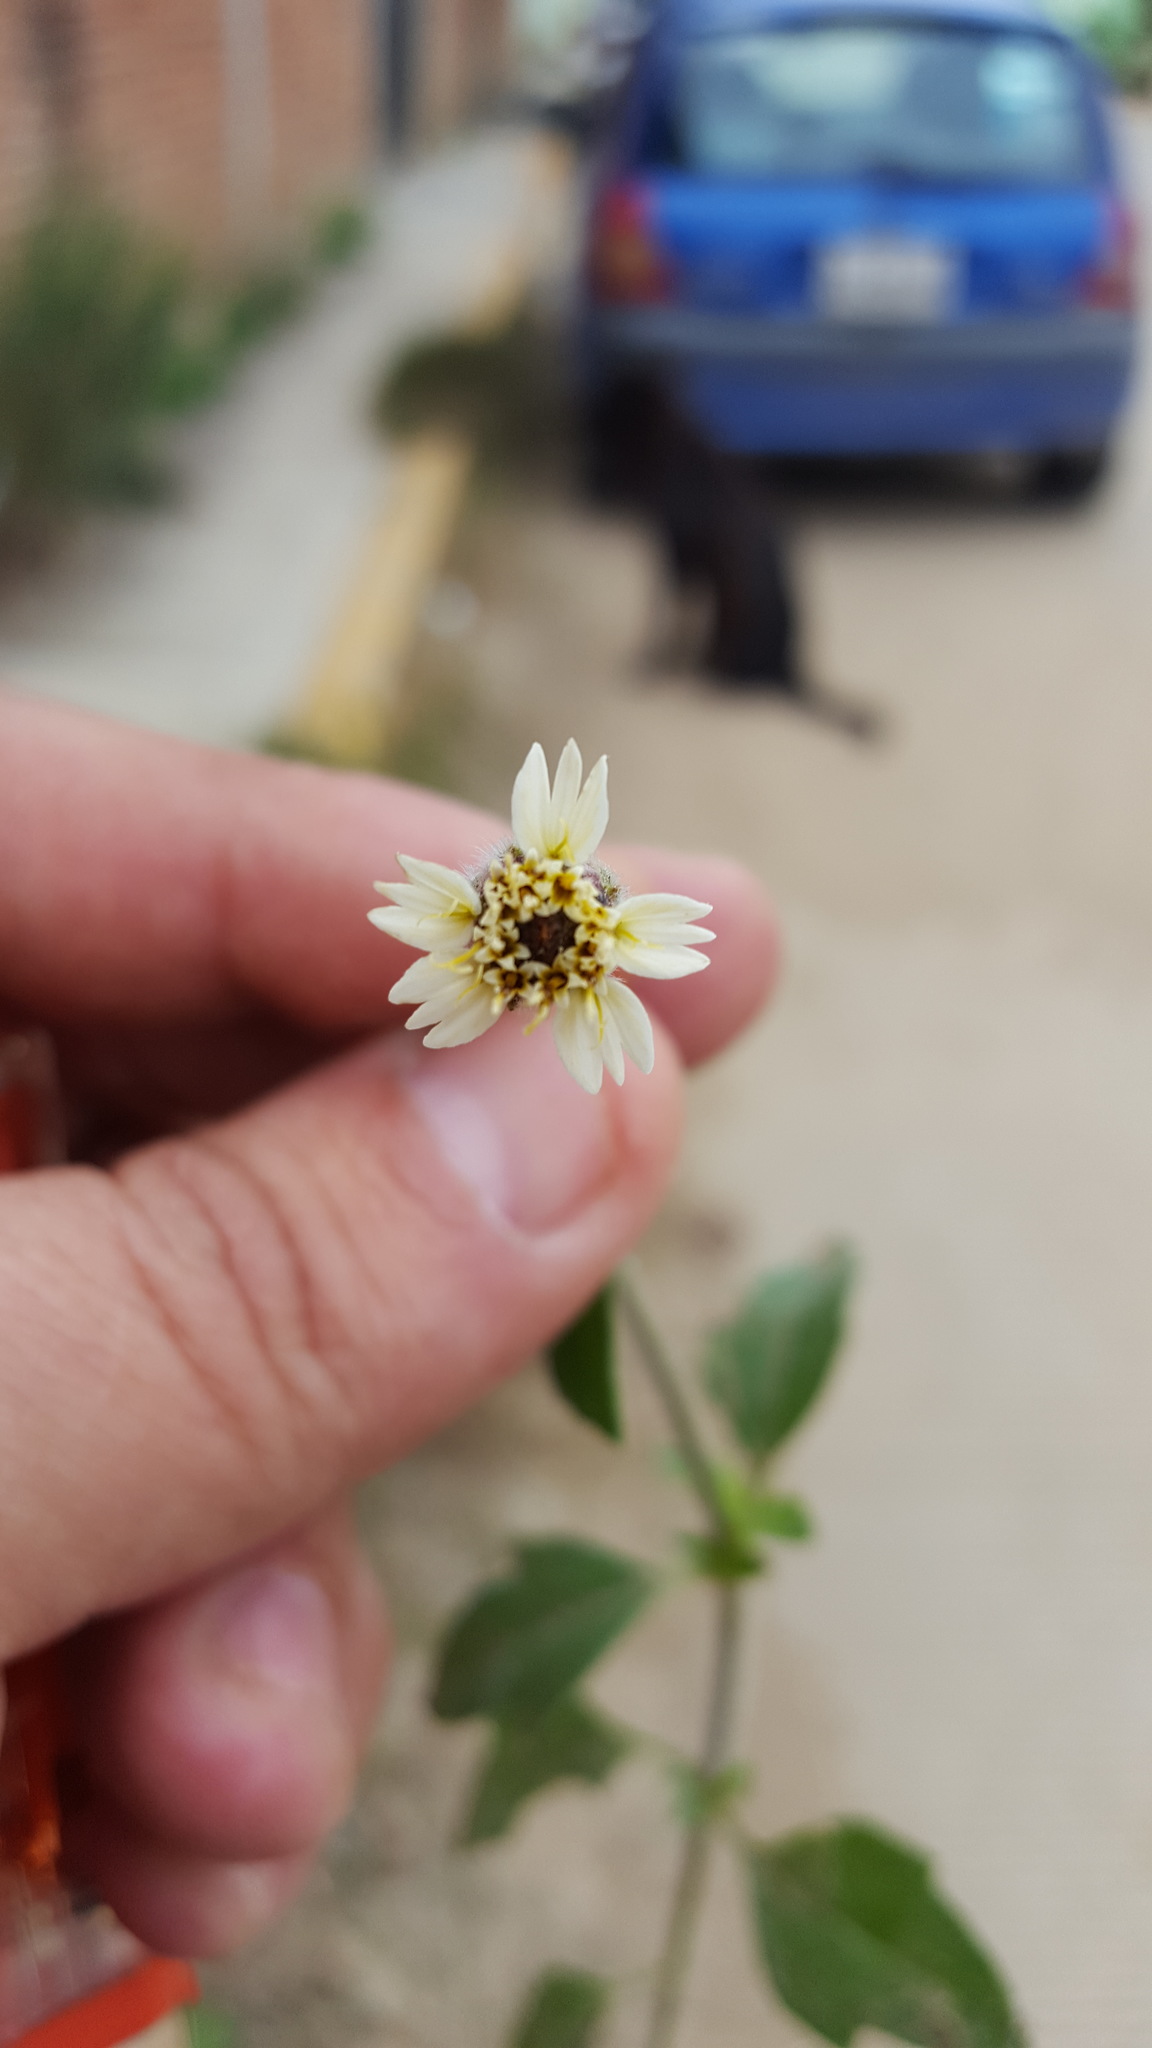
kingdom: Plantae
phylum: Tracheophyta
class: Magnoliopsida
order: Asterales
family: Asteraceae
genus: Tridax
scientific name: Tridax procumbens
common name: Coatbuttons
